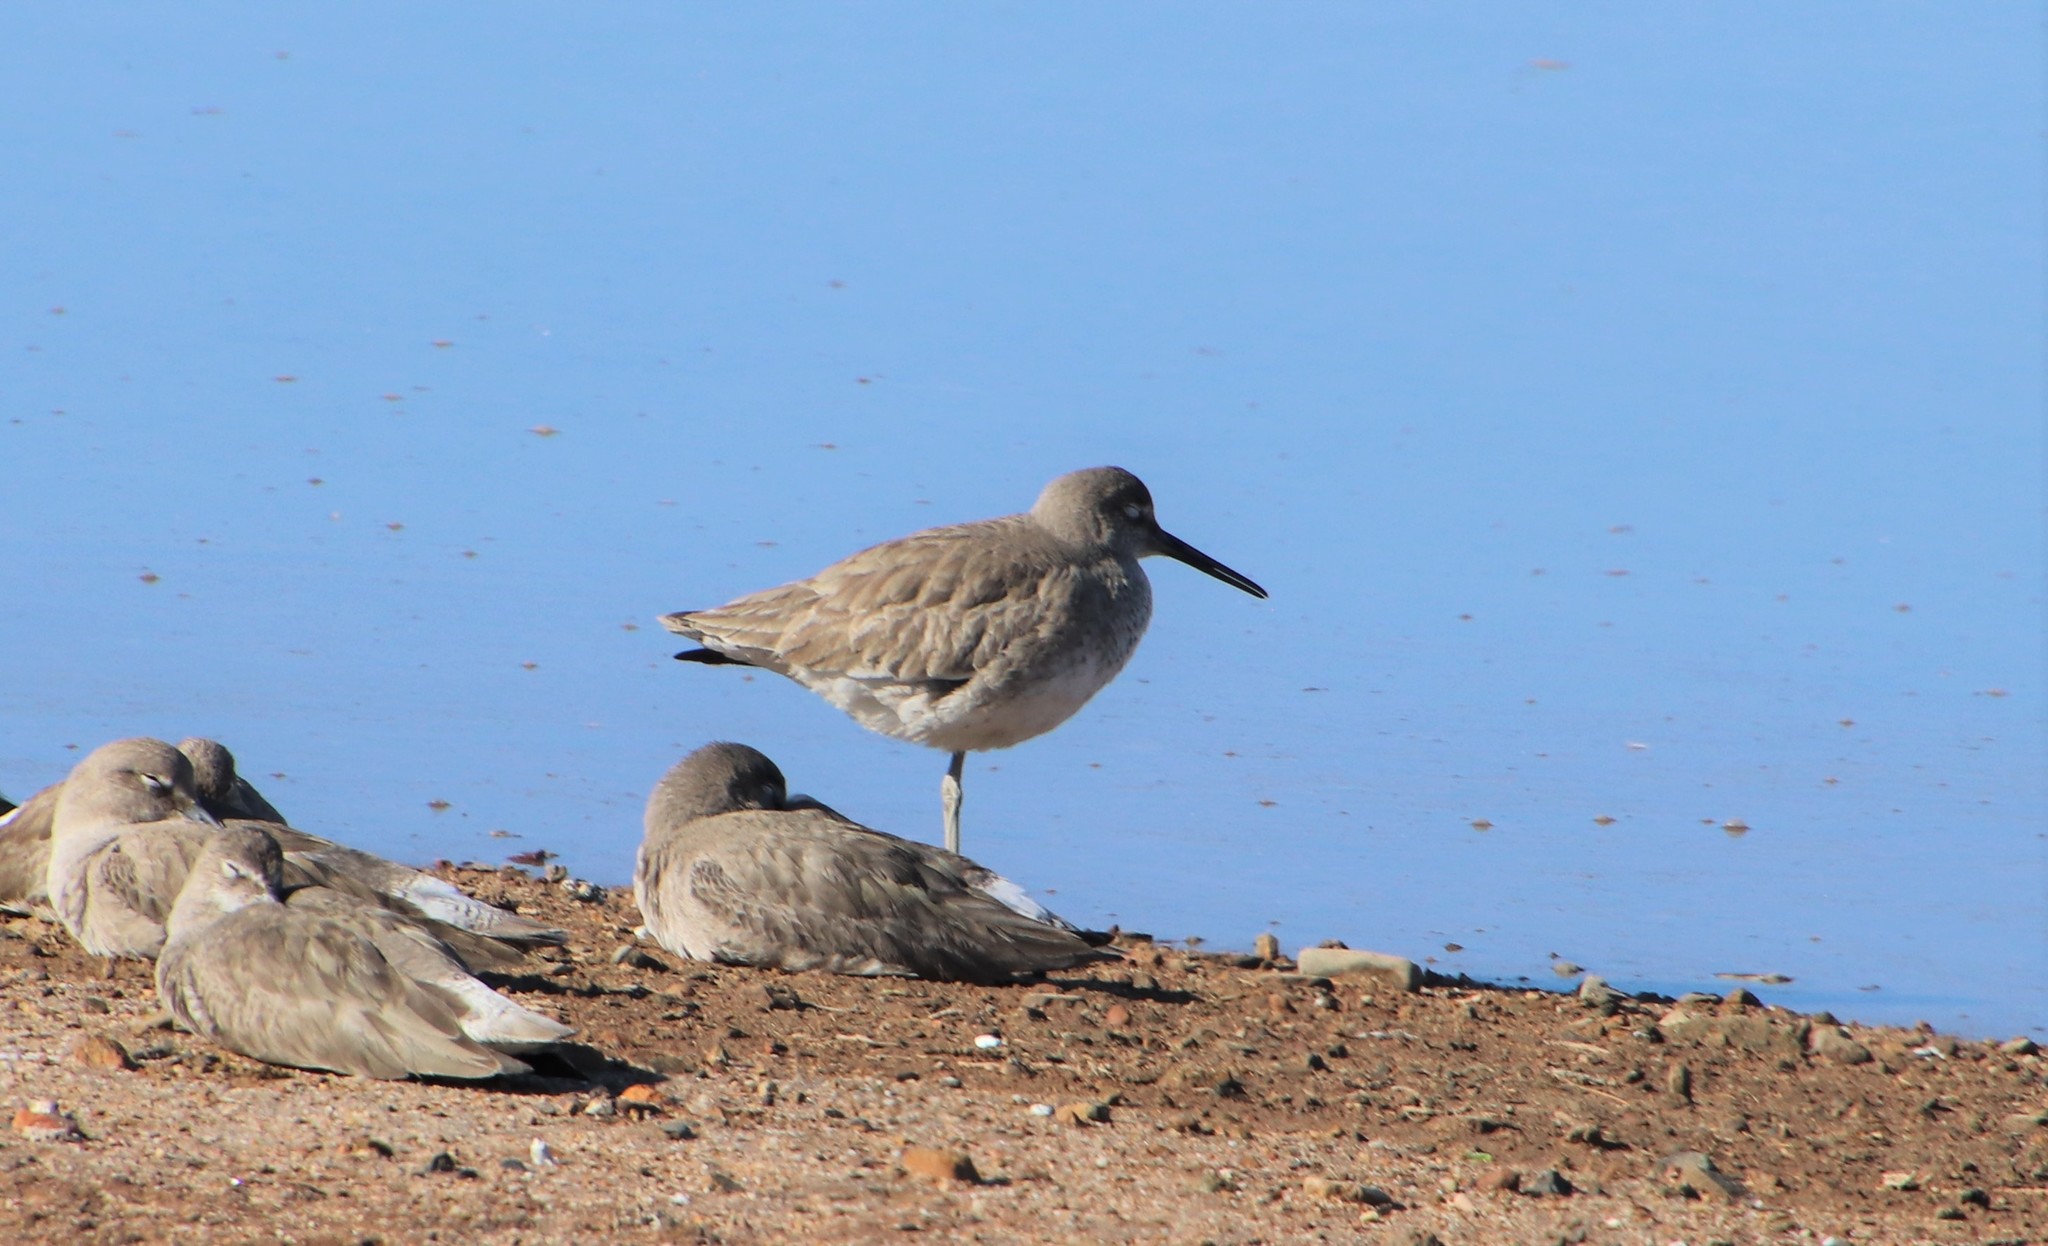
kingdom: Animalia
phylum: Chordata
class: Aves
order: Charadriiformes
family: Scolopacidae
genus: Tringa
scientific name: Tringa semipalmata
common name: Willet
